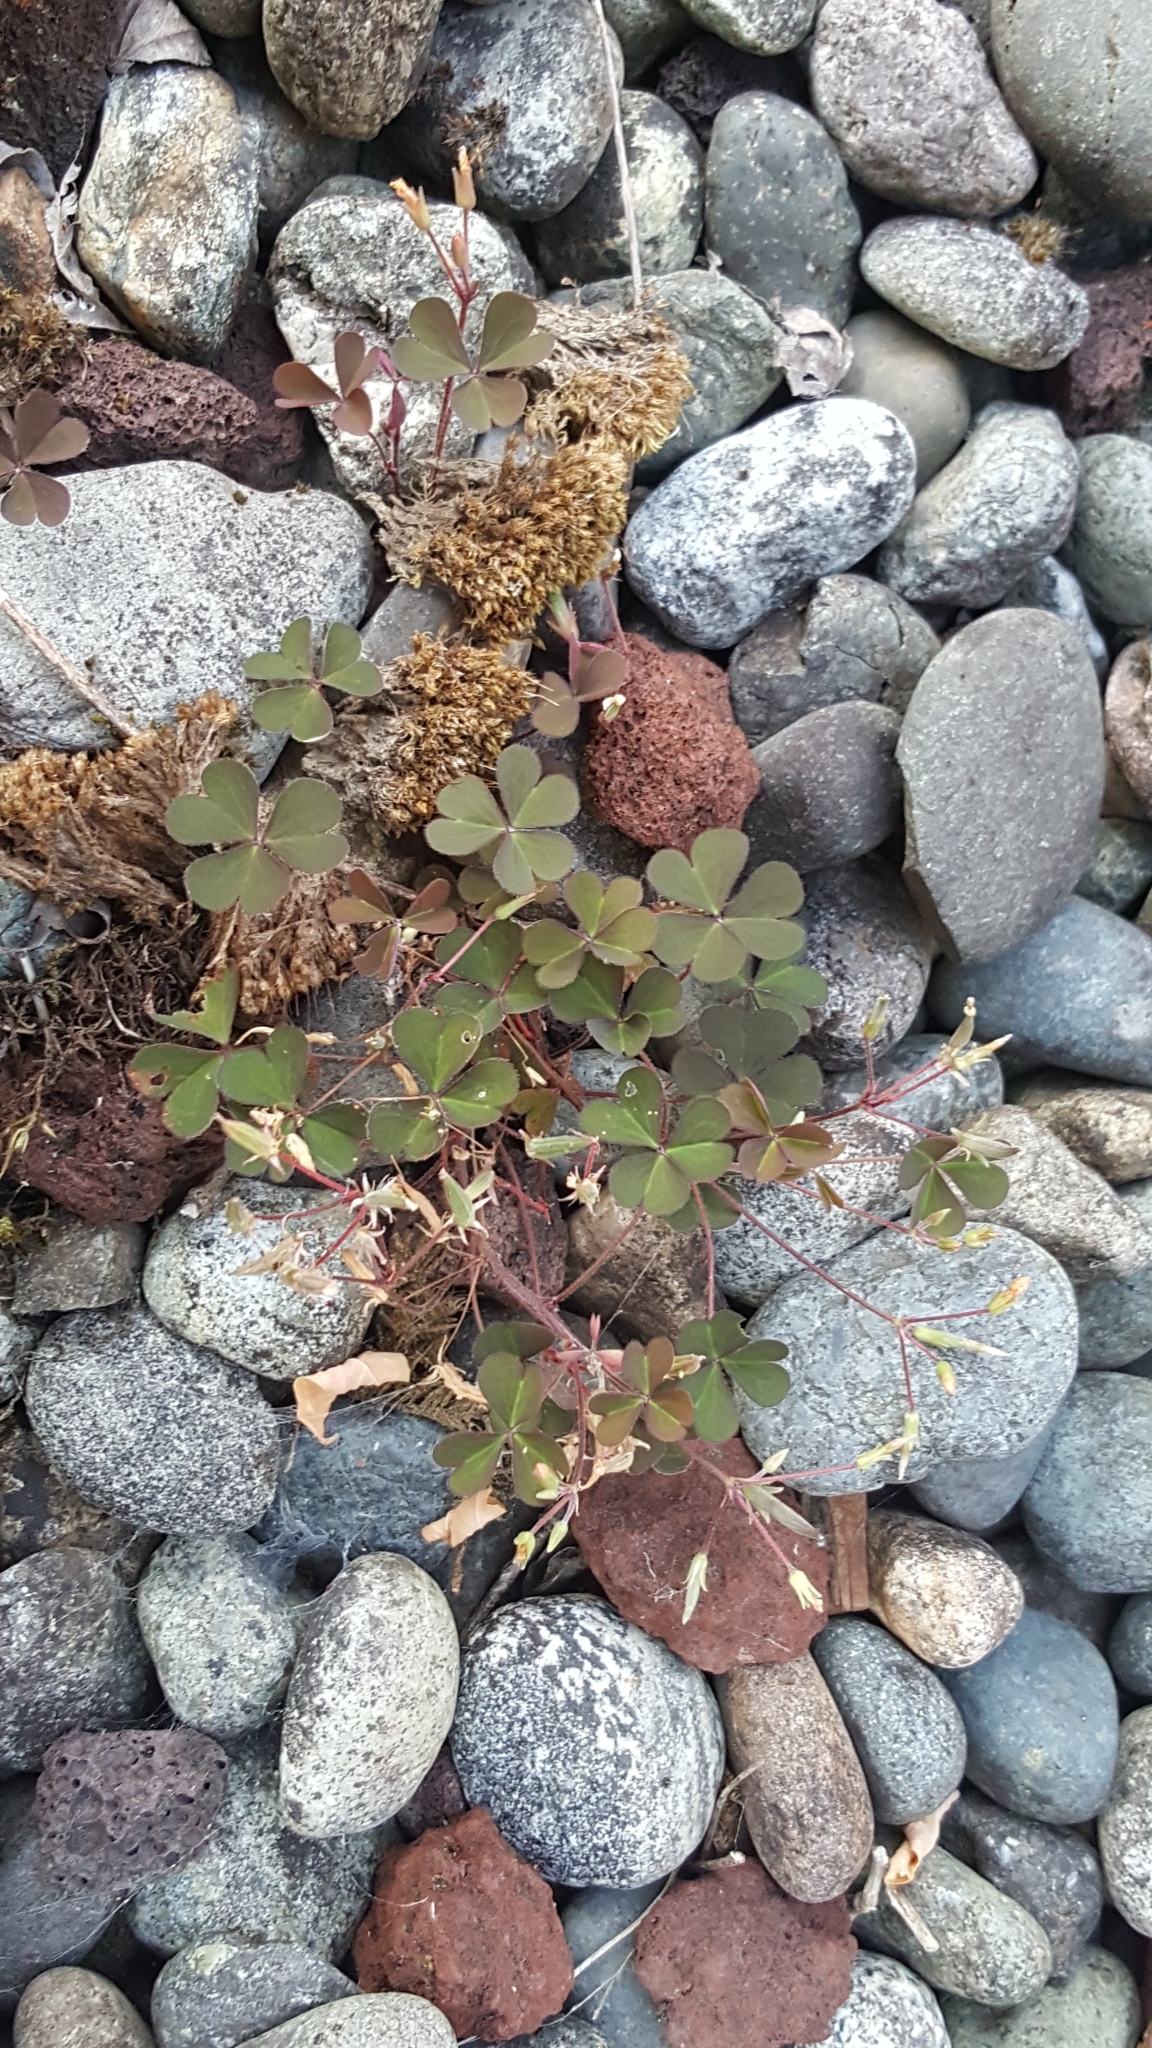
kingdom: Plantae
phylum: Tracheophyta
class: Magnoliopsida
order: Oxalidales
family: Oxalidaceae
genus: Oxalis
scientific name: Oxalis corniculata
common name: Procumbent yellow-sorrel
